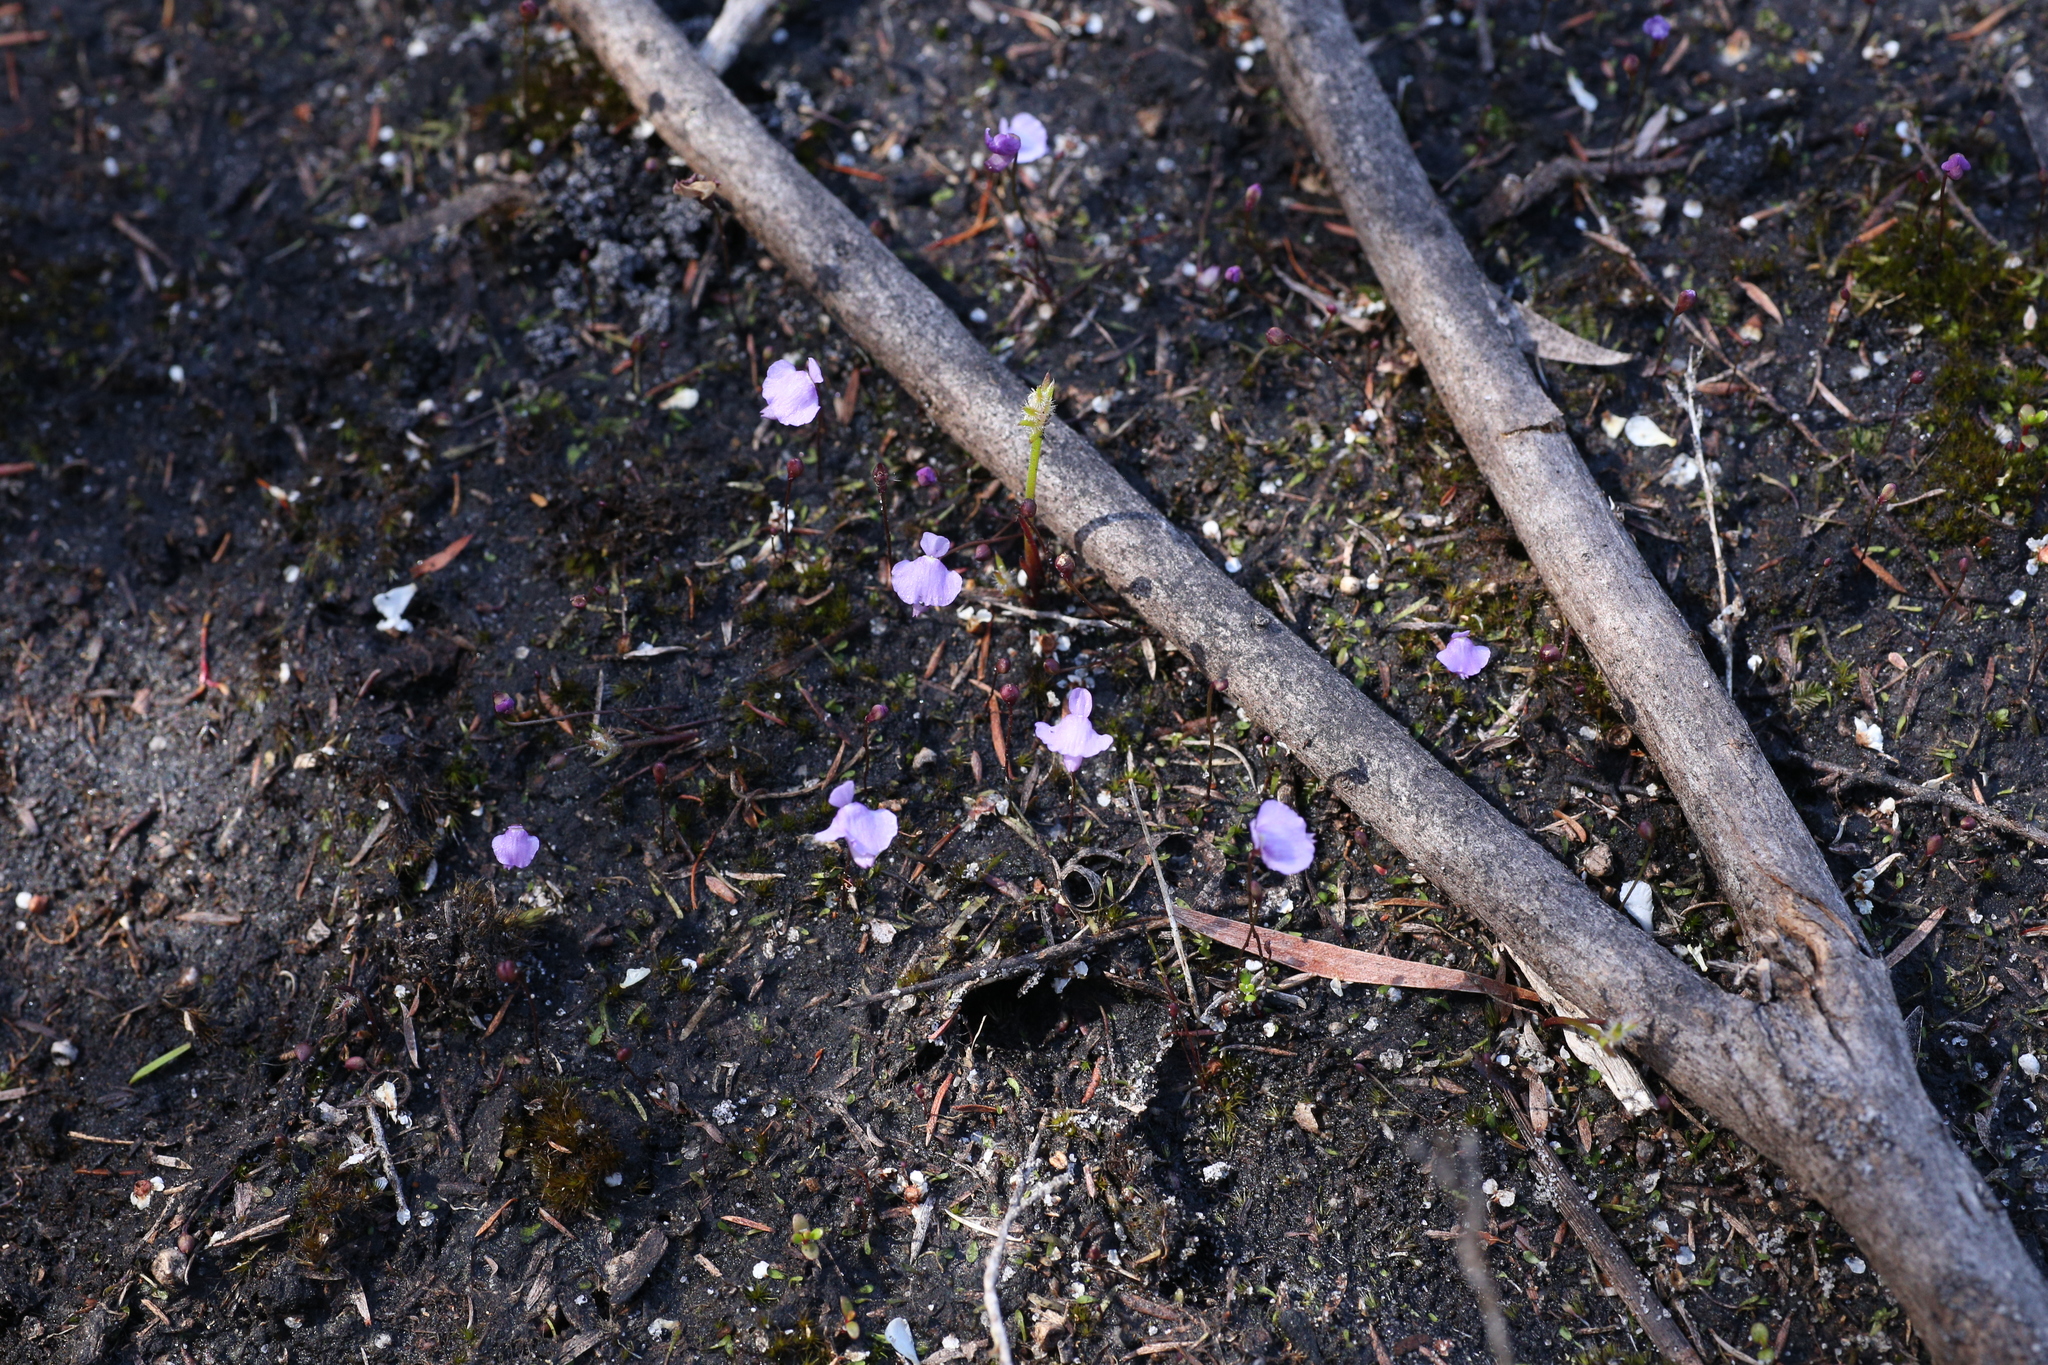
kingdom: Plantae
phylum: Tracheophyta
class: Magnoliopsida
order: Lamiales
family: Lentibulariaceae
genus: Utricularia
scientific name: Utricularia simplex
